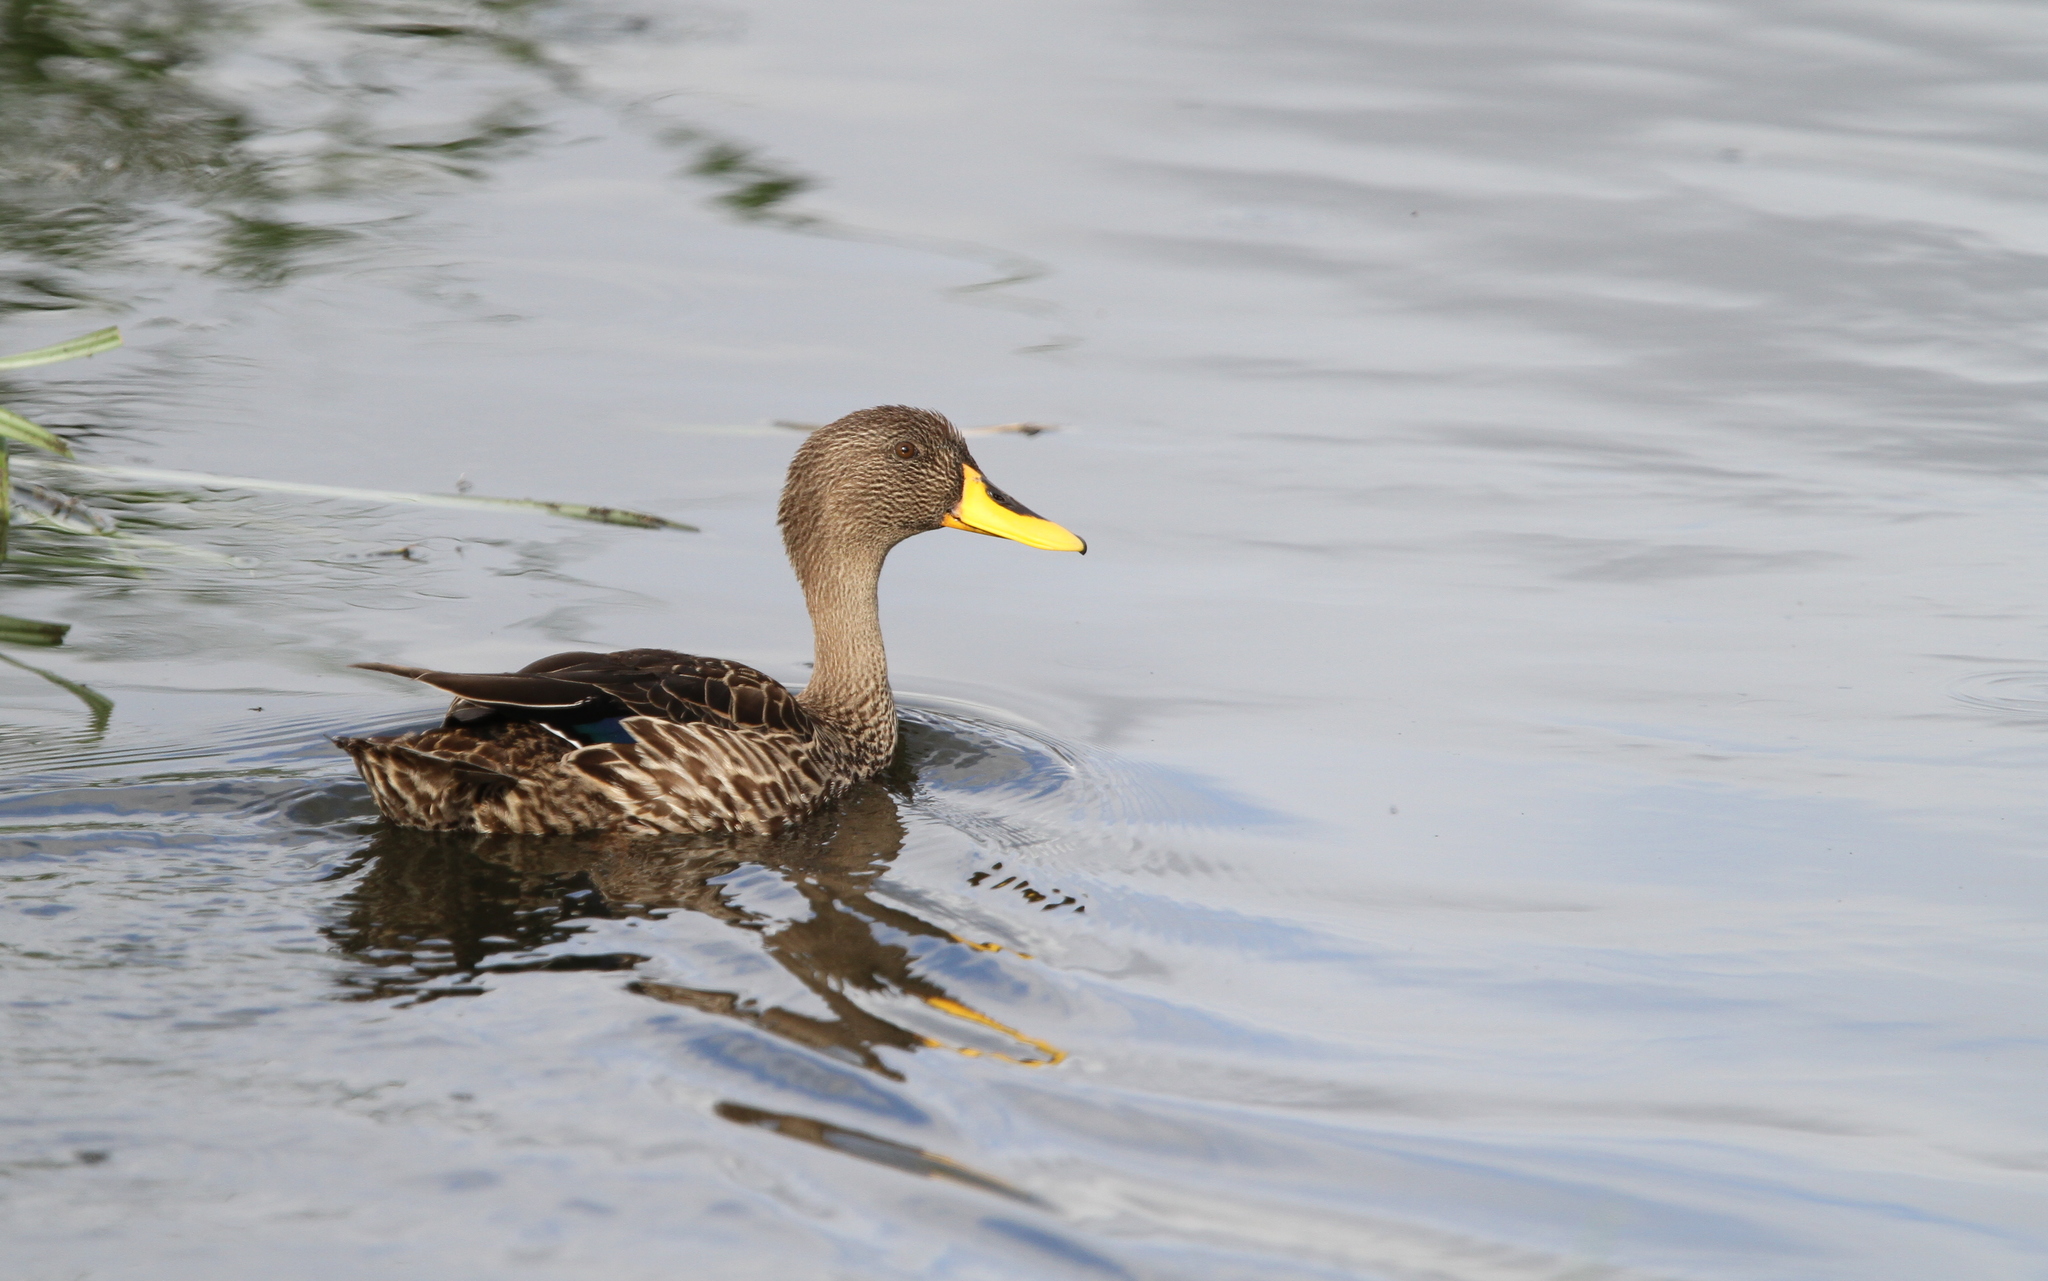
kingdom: Animalia
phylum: Chordata
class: Aves
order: Anseriformes
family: Anatidae
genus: Anas
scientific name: Anas undulata
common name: Yellow-billed duck
